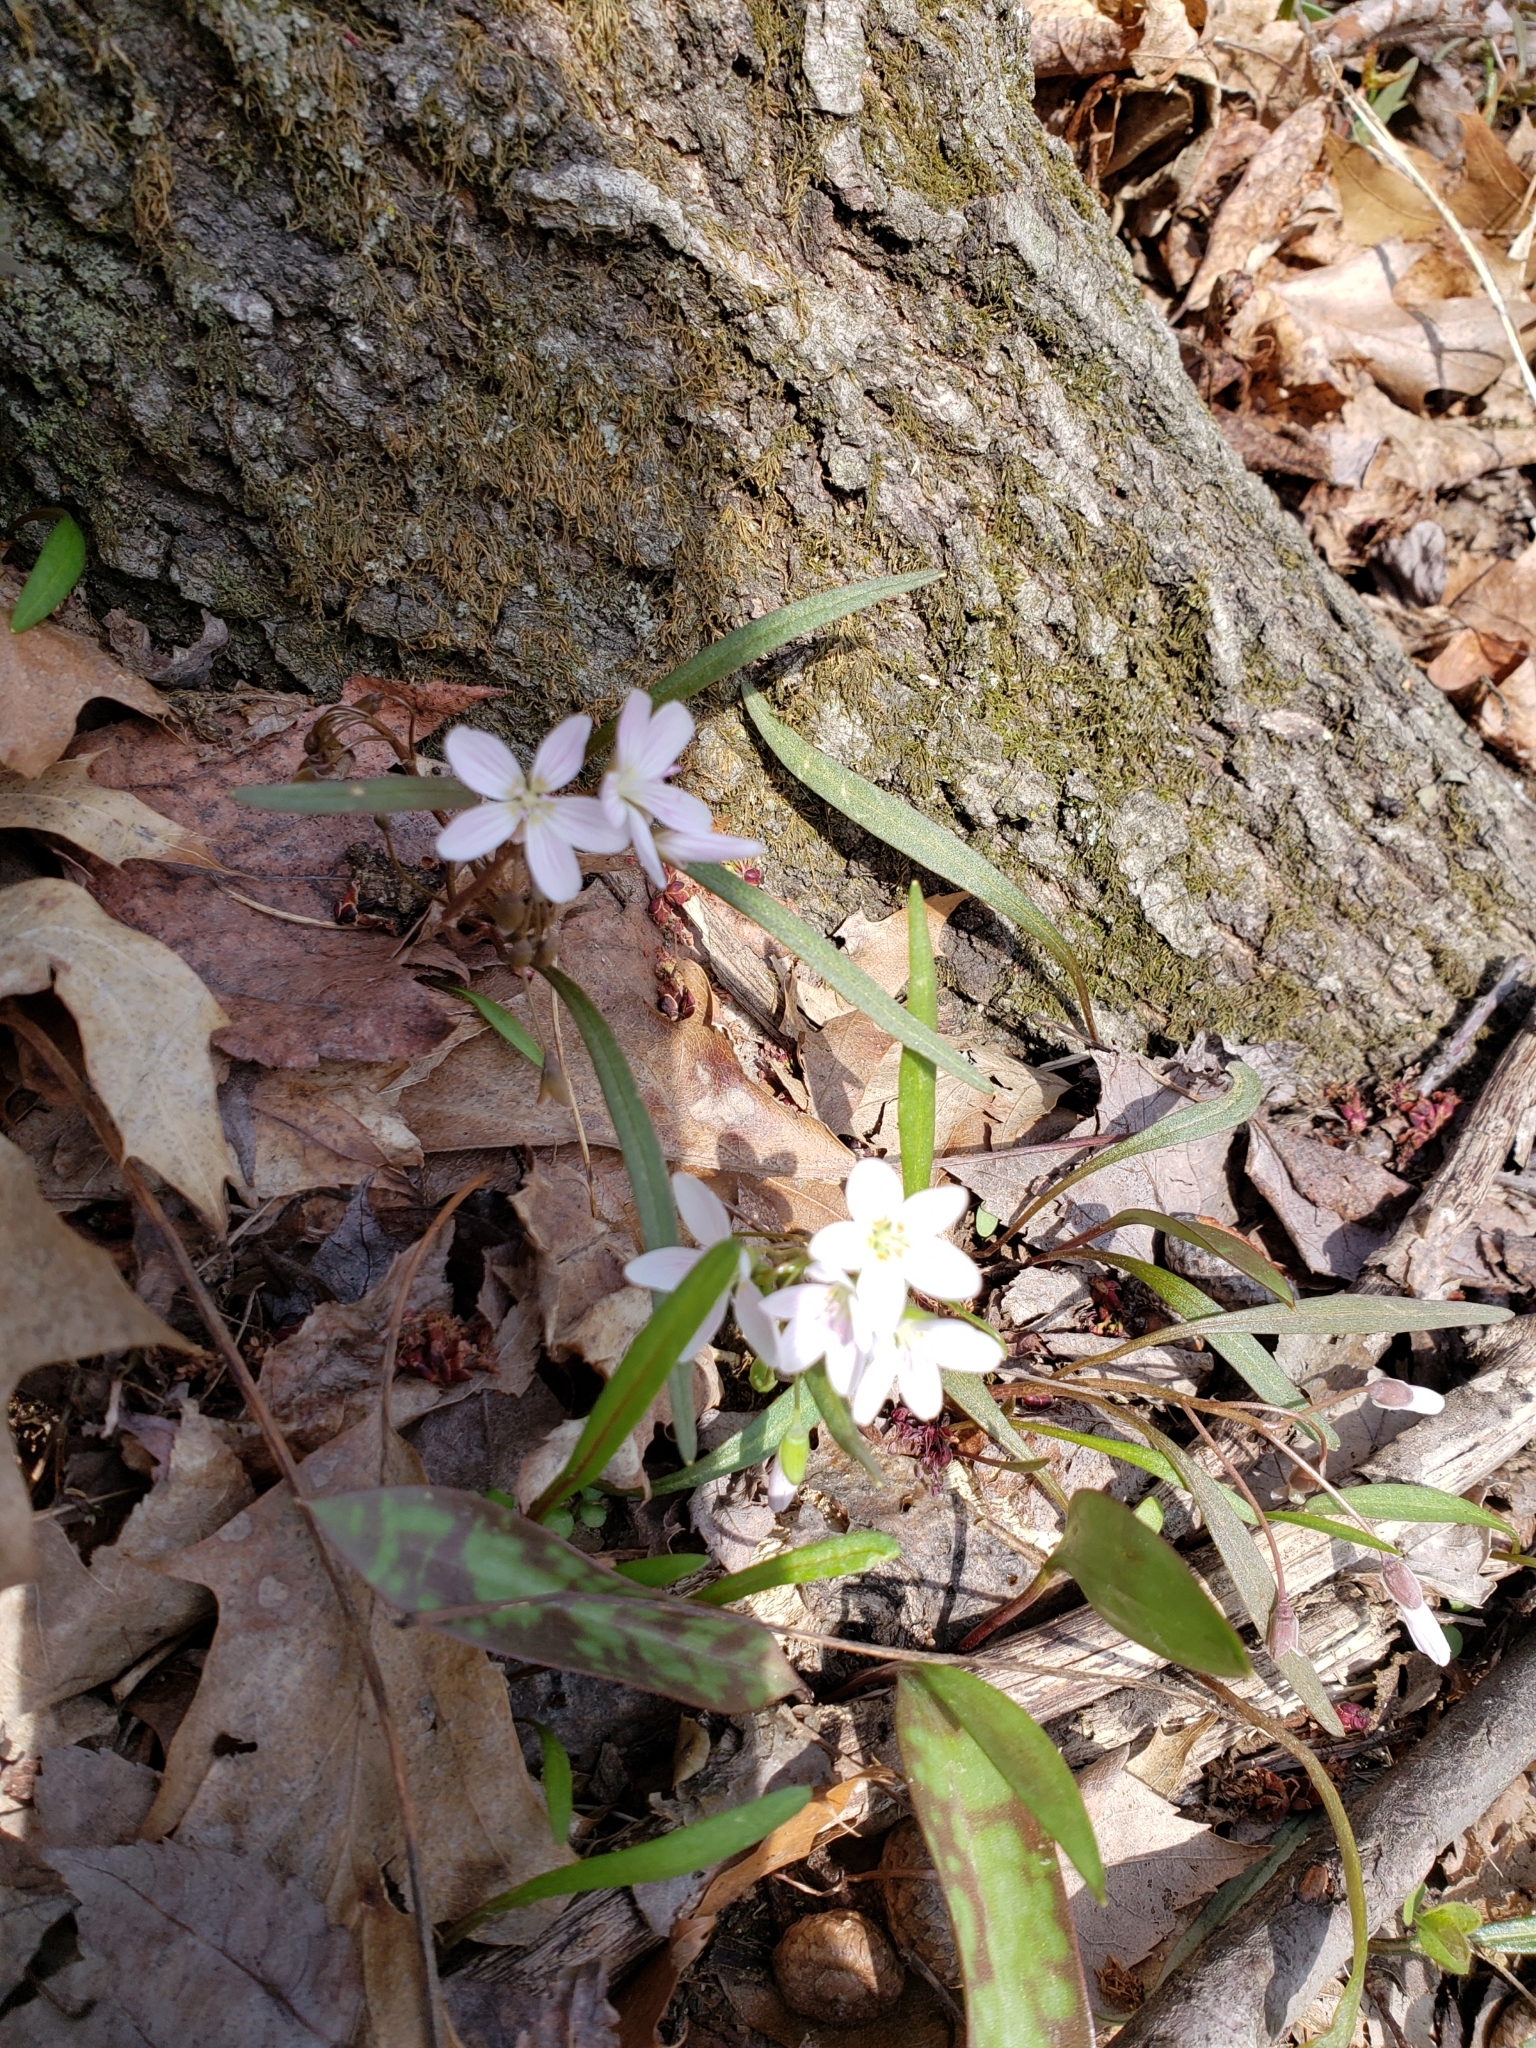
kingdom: Plantae
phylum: Tracheophyta
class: Magnoliopsida
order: Caryophyllales
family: Montiaceae
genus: Claytonia
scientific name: Claytonia virginica
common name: Virginia springbeauty
